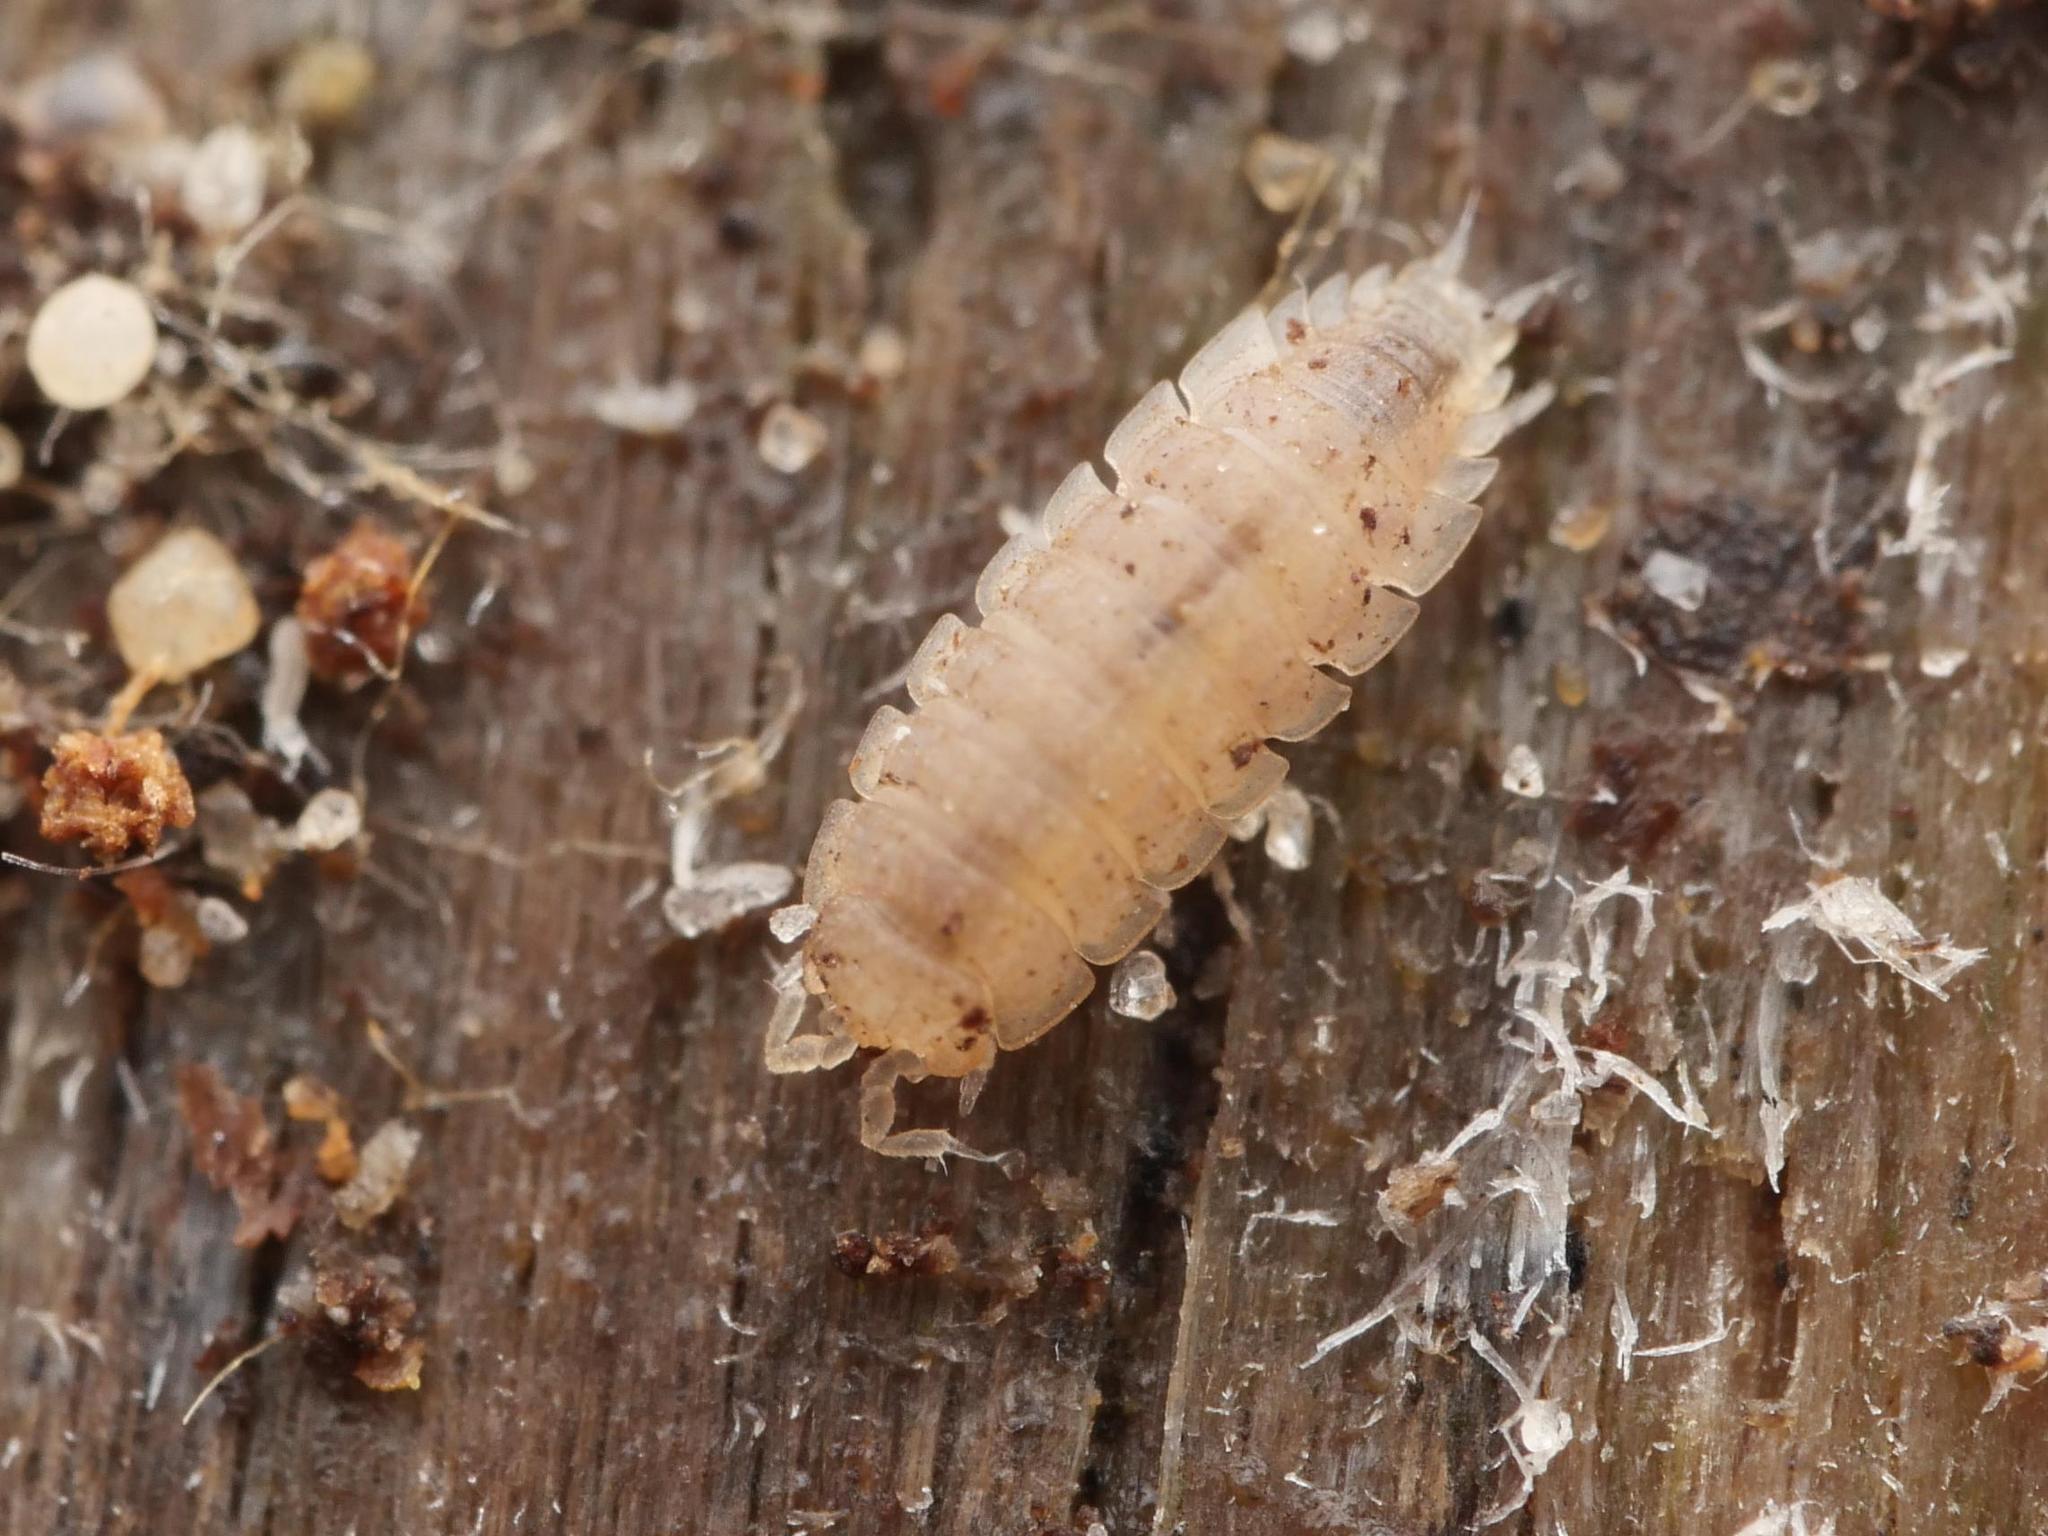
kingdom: Animalia
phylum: Arthropoda
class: Malacostraca
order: Isopoda
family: Trichoniscidae
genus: Haplophthalmus
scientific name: Haplophthalmus danicus
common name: Pillbug
